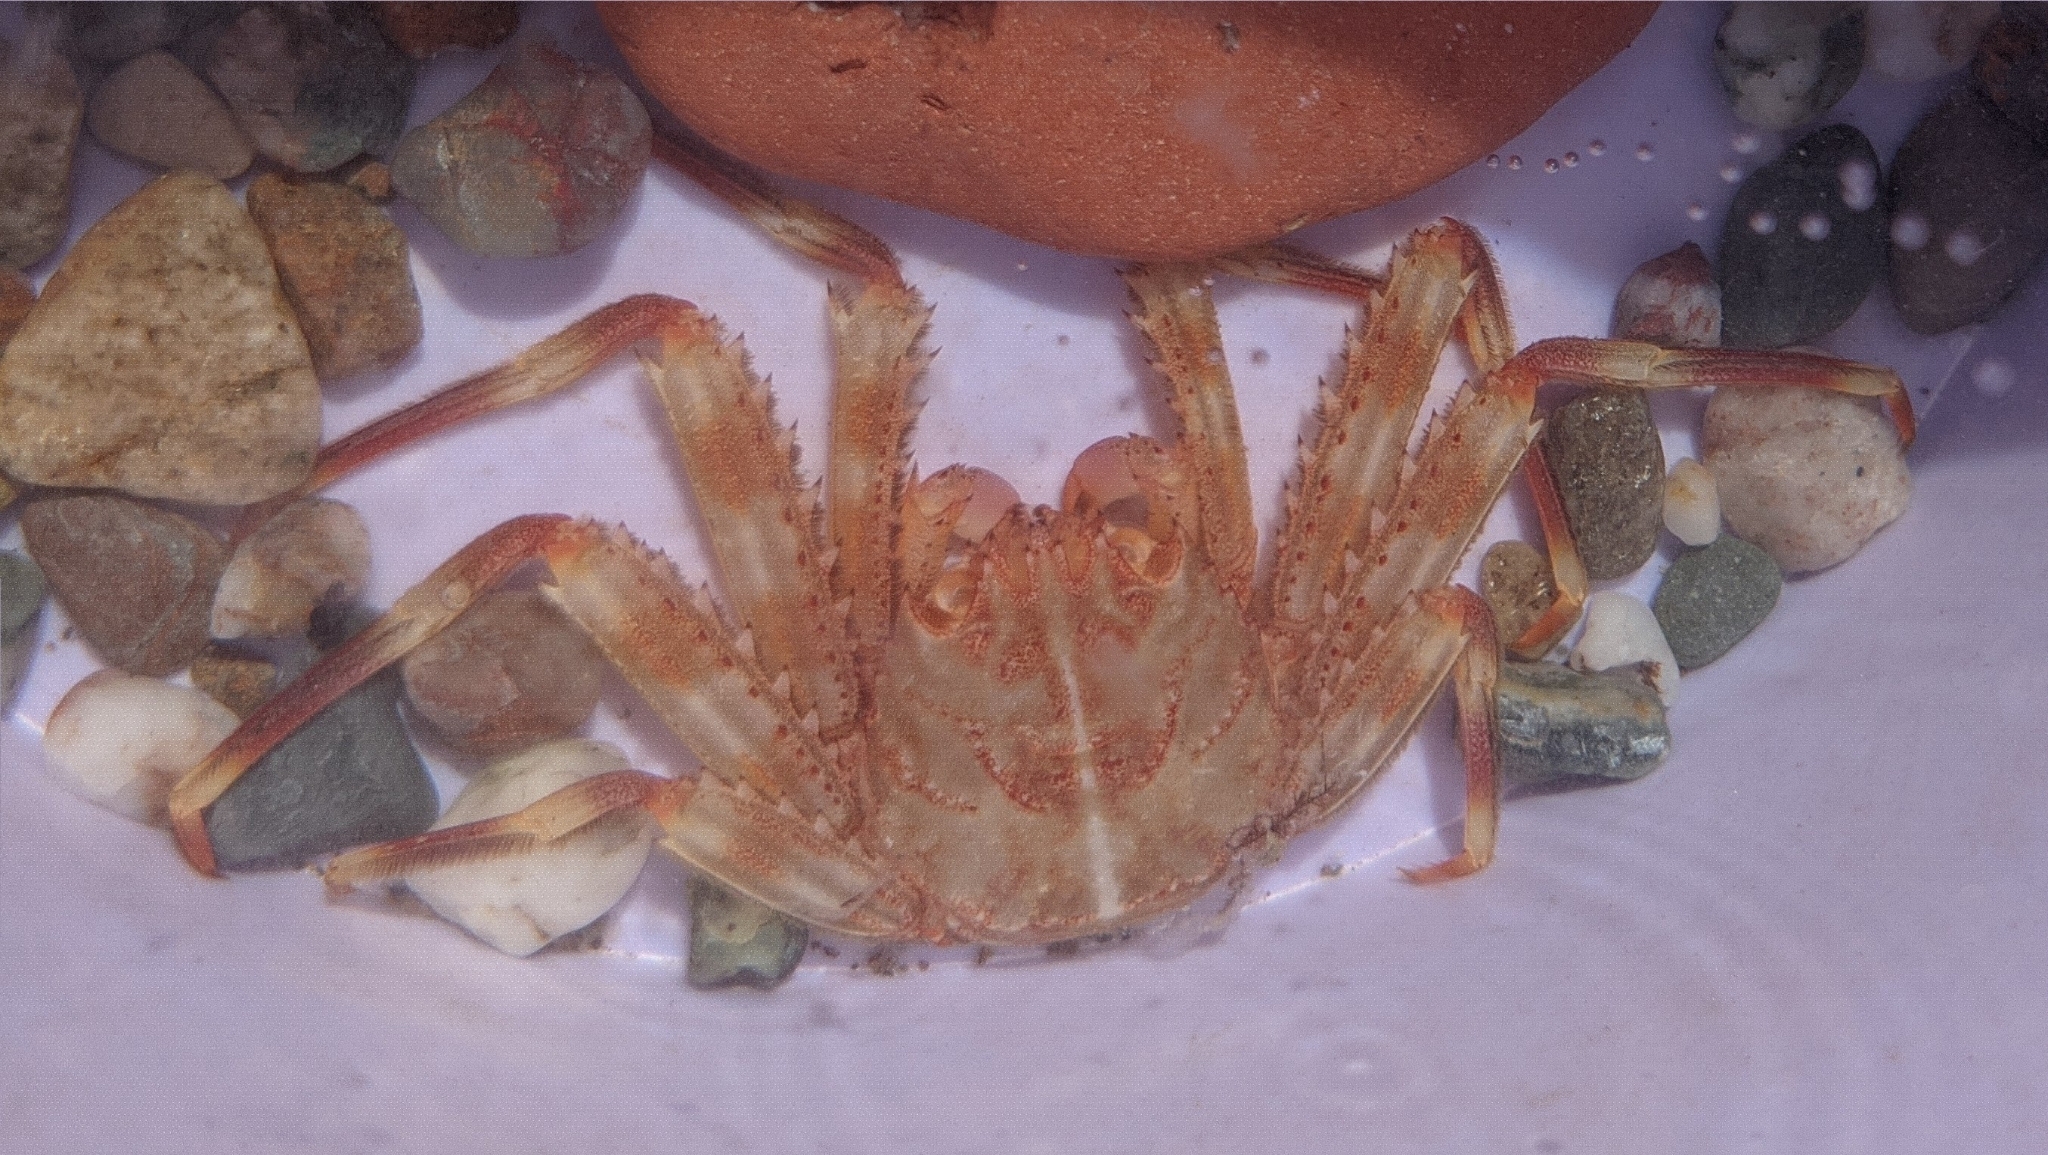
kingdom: Animalia
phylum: Arthropoda
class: Malacostraca
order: Decapoda
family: Percnidae
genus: Percnon
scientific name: Percnon gibbesi
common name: Nimble spray crab
